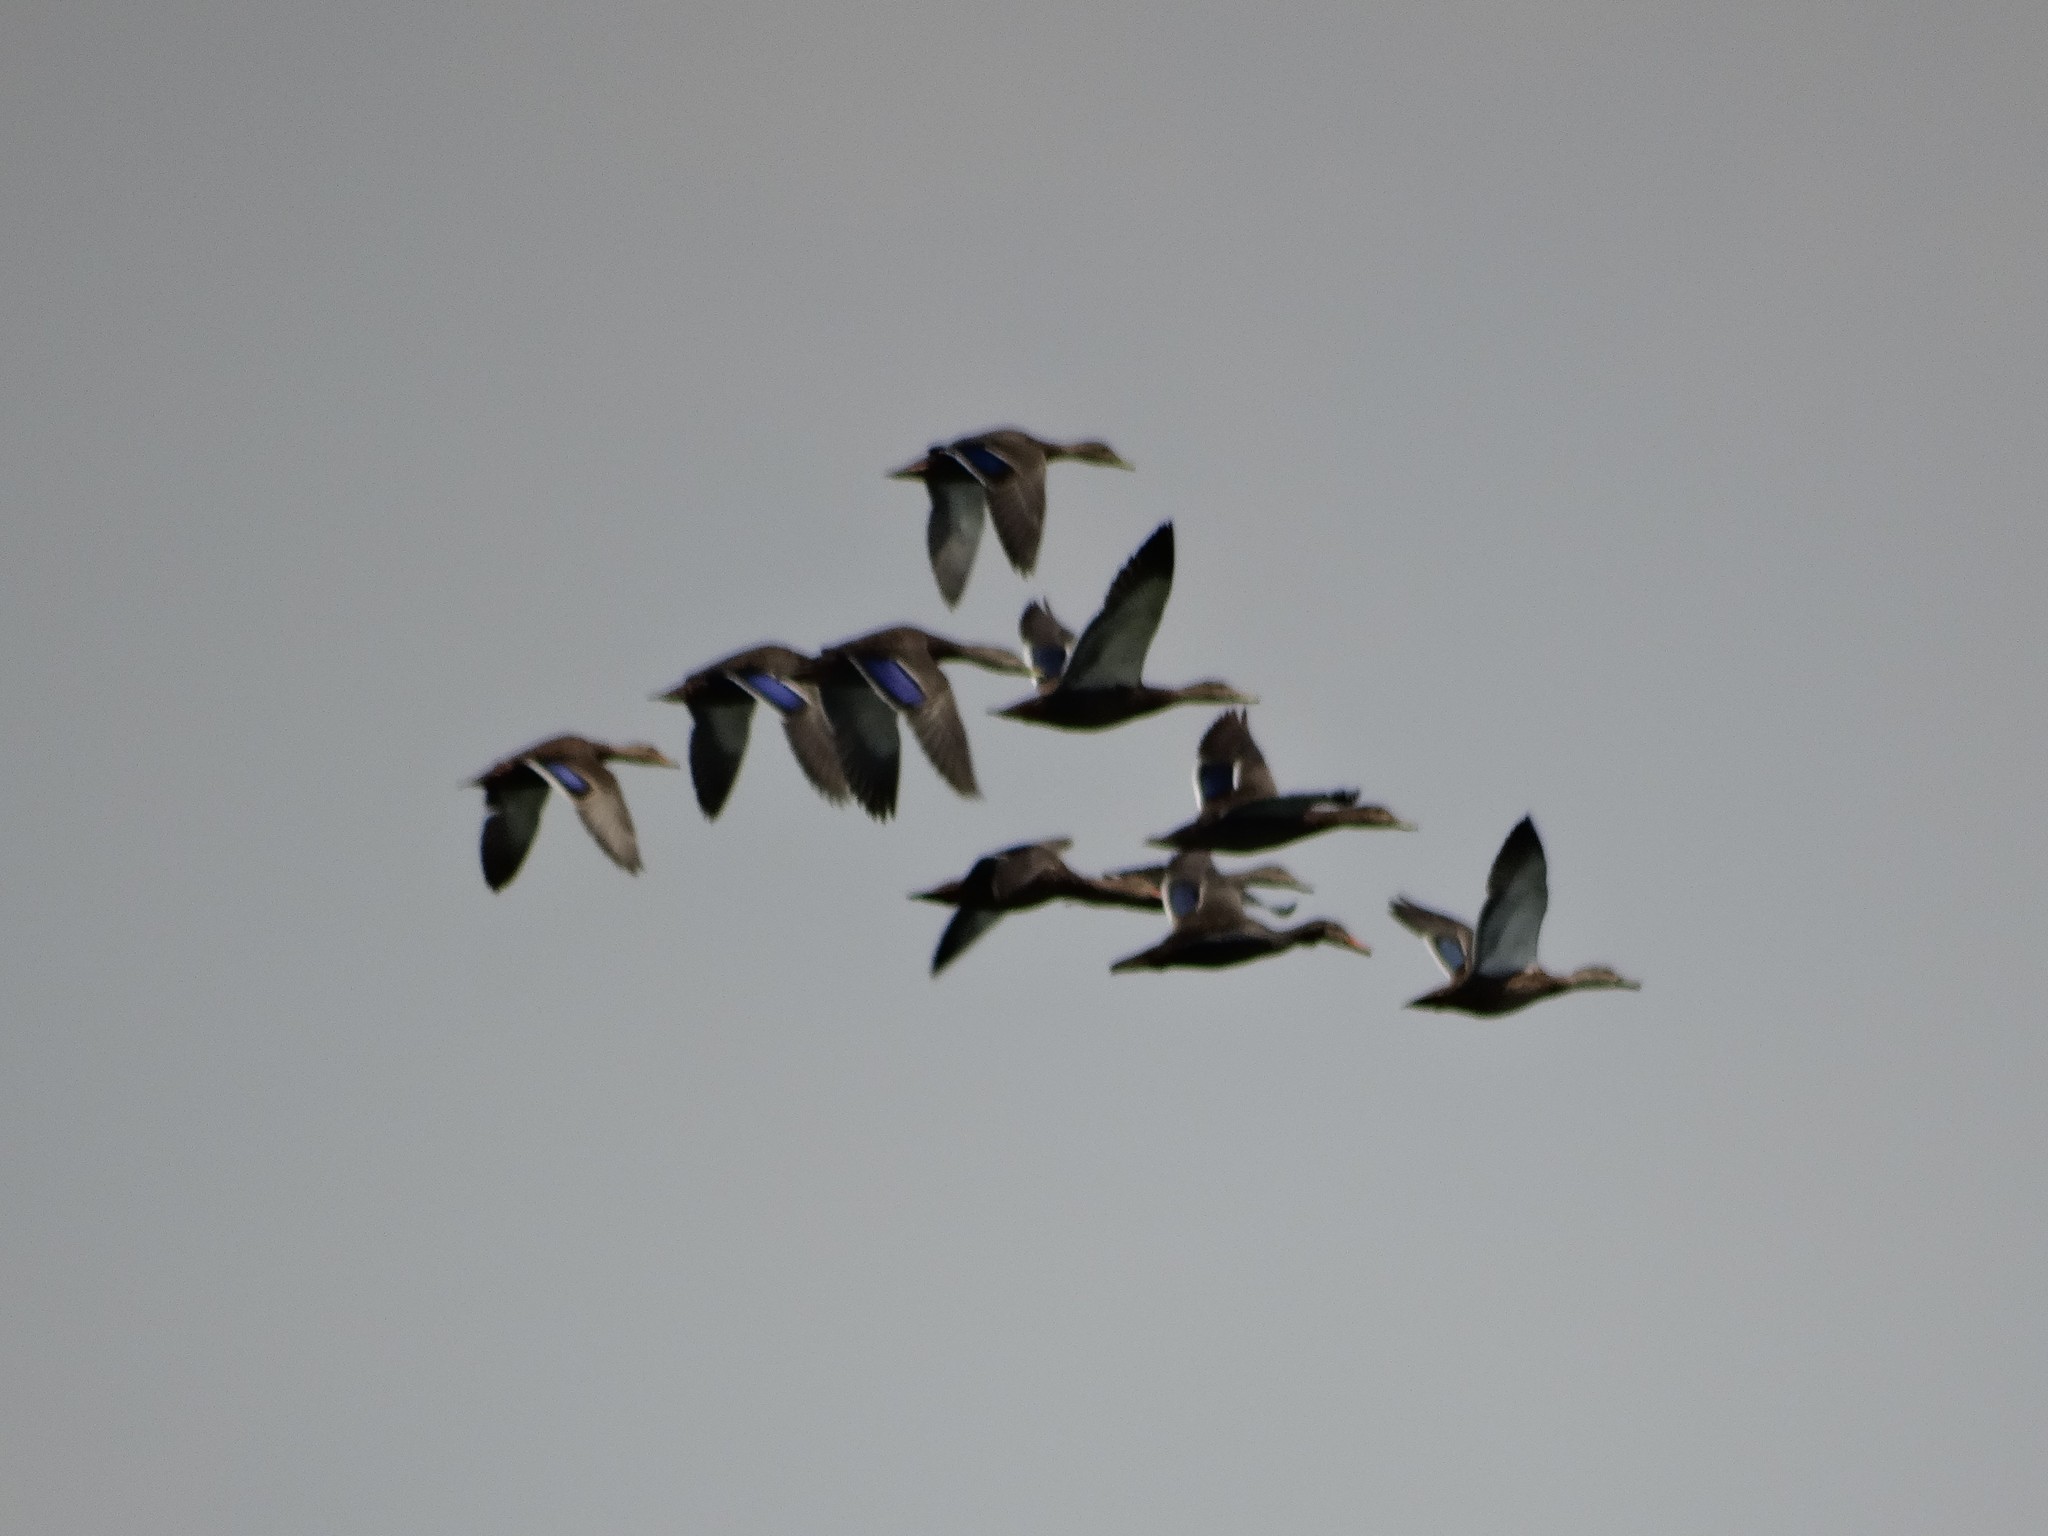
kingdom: Animalia
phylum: Chordata
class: Aves
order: Anseriformes
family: Anatidae
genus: Anas
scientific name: Anas diazi
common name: Mexican duck
